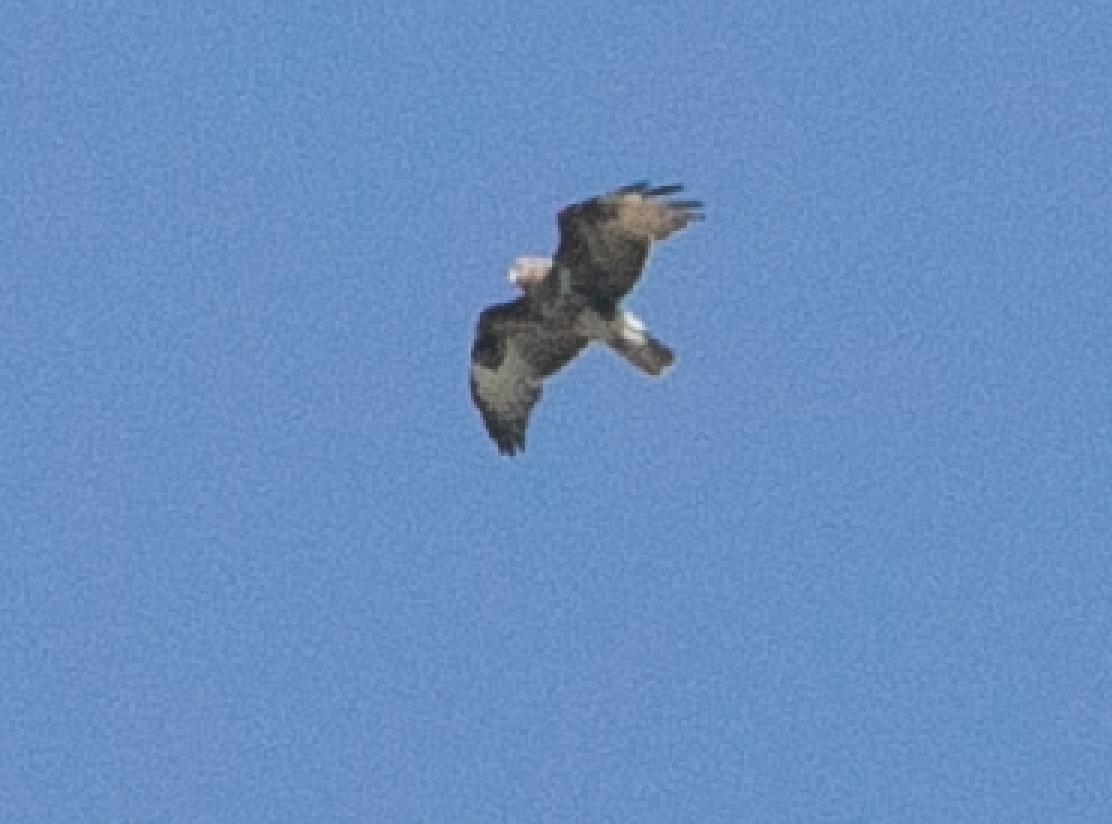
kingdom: Animalia
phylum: Chordata
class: Aves
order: Accipitriformes
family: Accipitridae
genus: Buteo
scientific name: Buteo buteo
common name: Common buzzard
